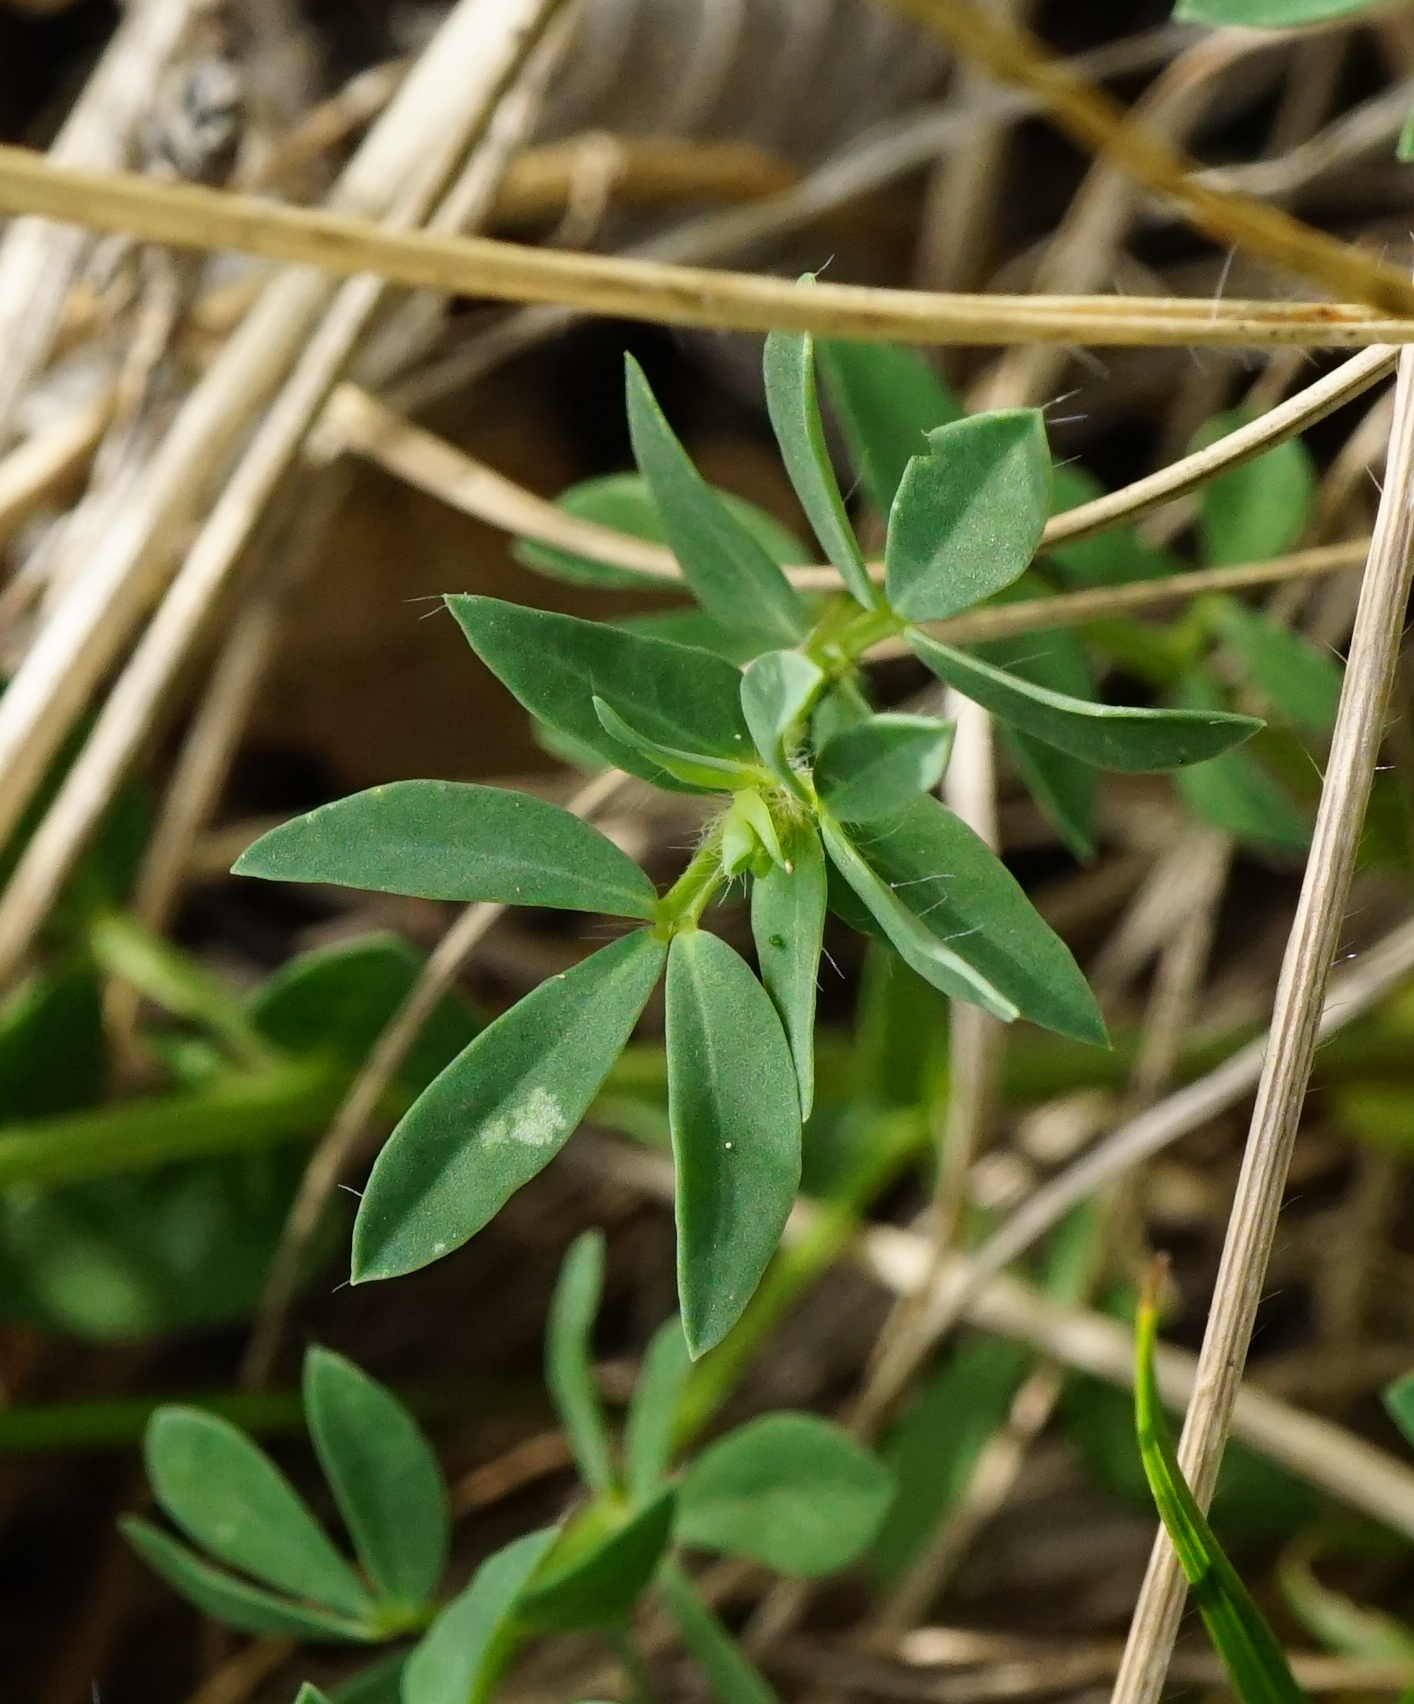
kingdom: Plantae
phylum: Tracheophyta
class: Magnoliopsida
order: Fabales
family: Fabaceae
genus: Lotus
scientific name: Lotus borbasii
